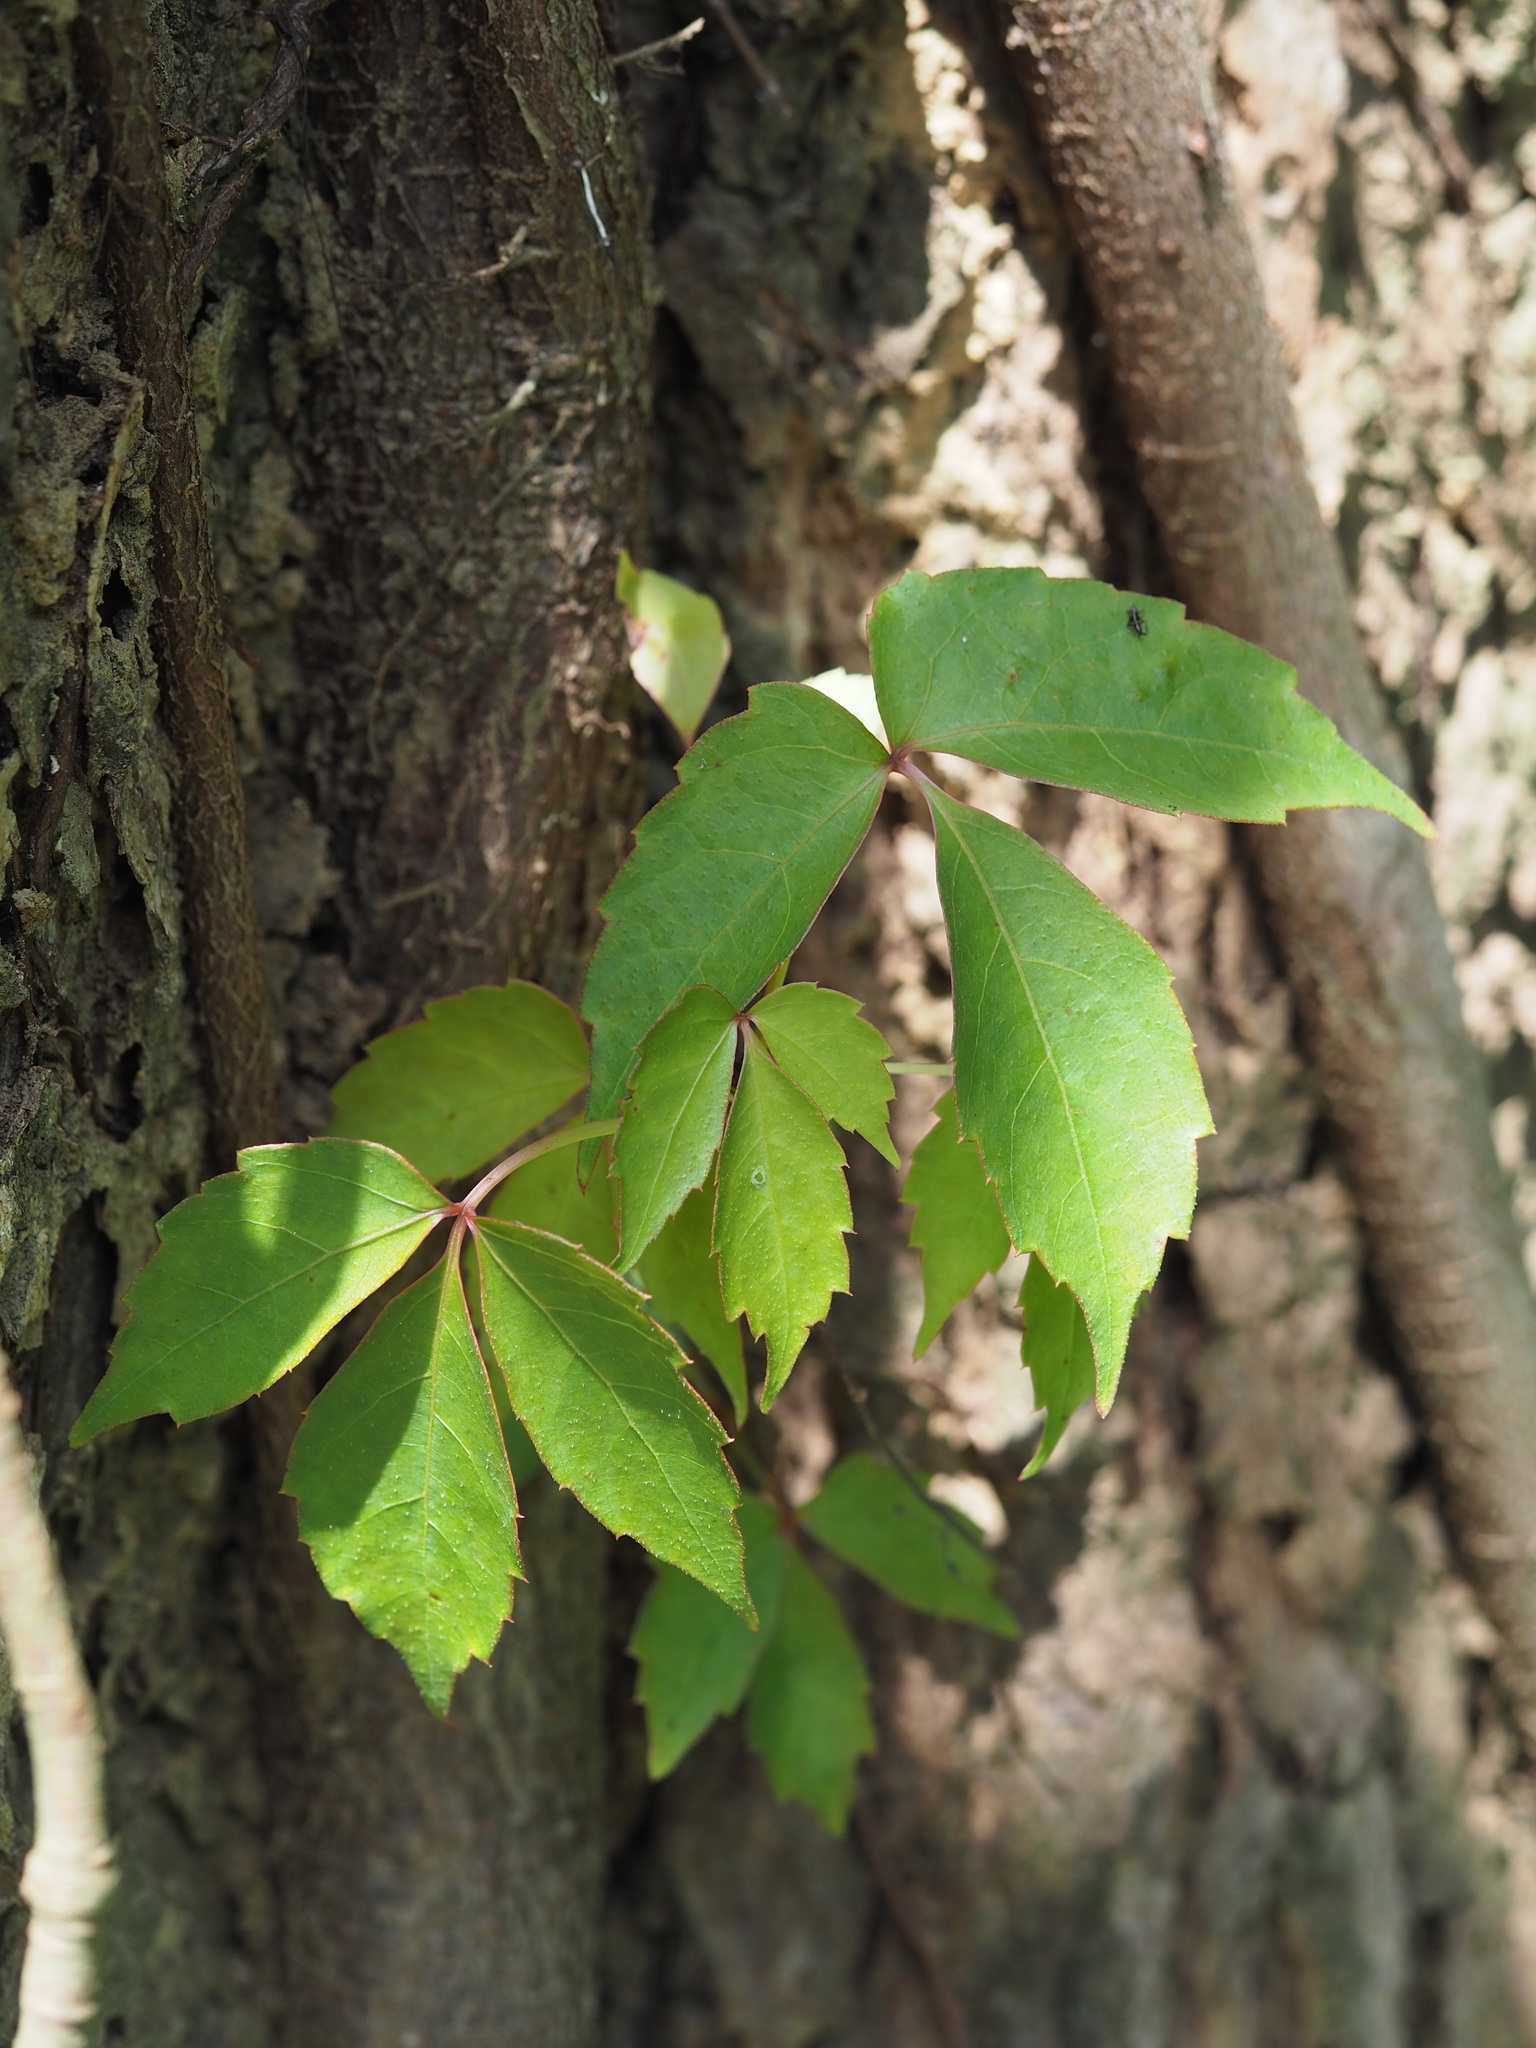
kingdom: Plantae
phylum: Tracheophyta
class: Magnoliopsida
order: Vitales
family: Vitaceae
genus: Parthenocissus
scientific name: Parthenocissus tricuspidata
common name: Boston ivy
